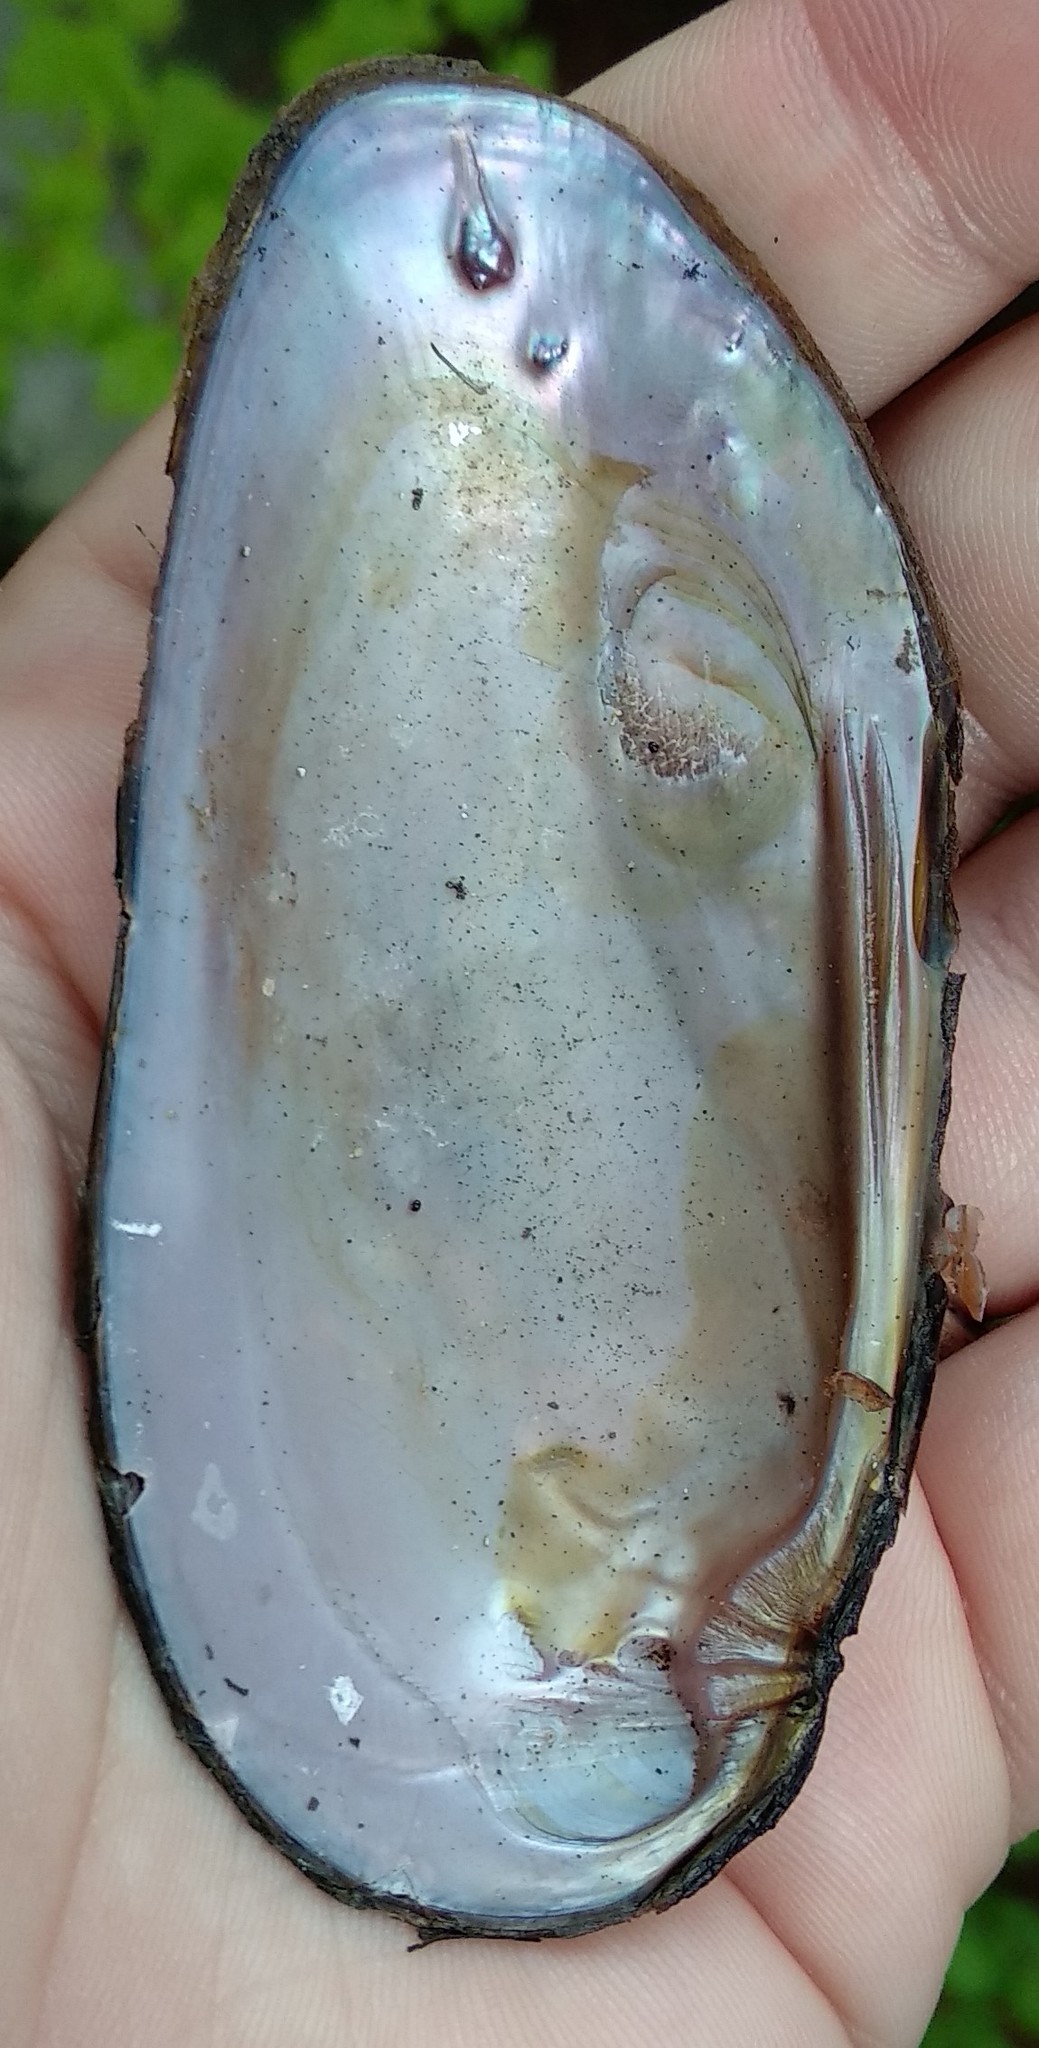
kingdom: Animalia
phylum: Mollusca
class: Bivalvia
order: Unionida
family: Unionidae
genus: Elliptio
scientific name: Elliptio complanata
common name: Eastern elliptio
